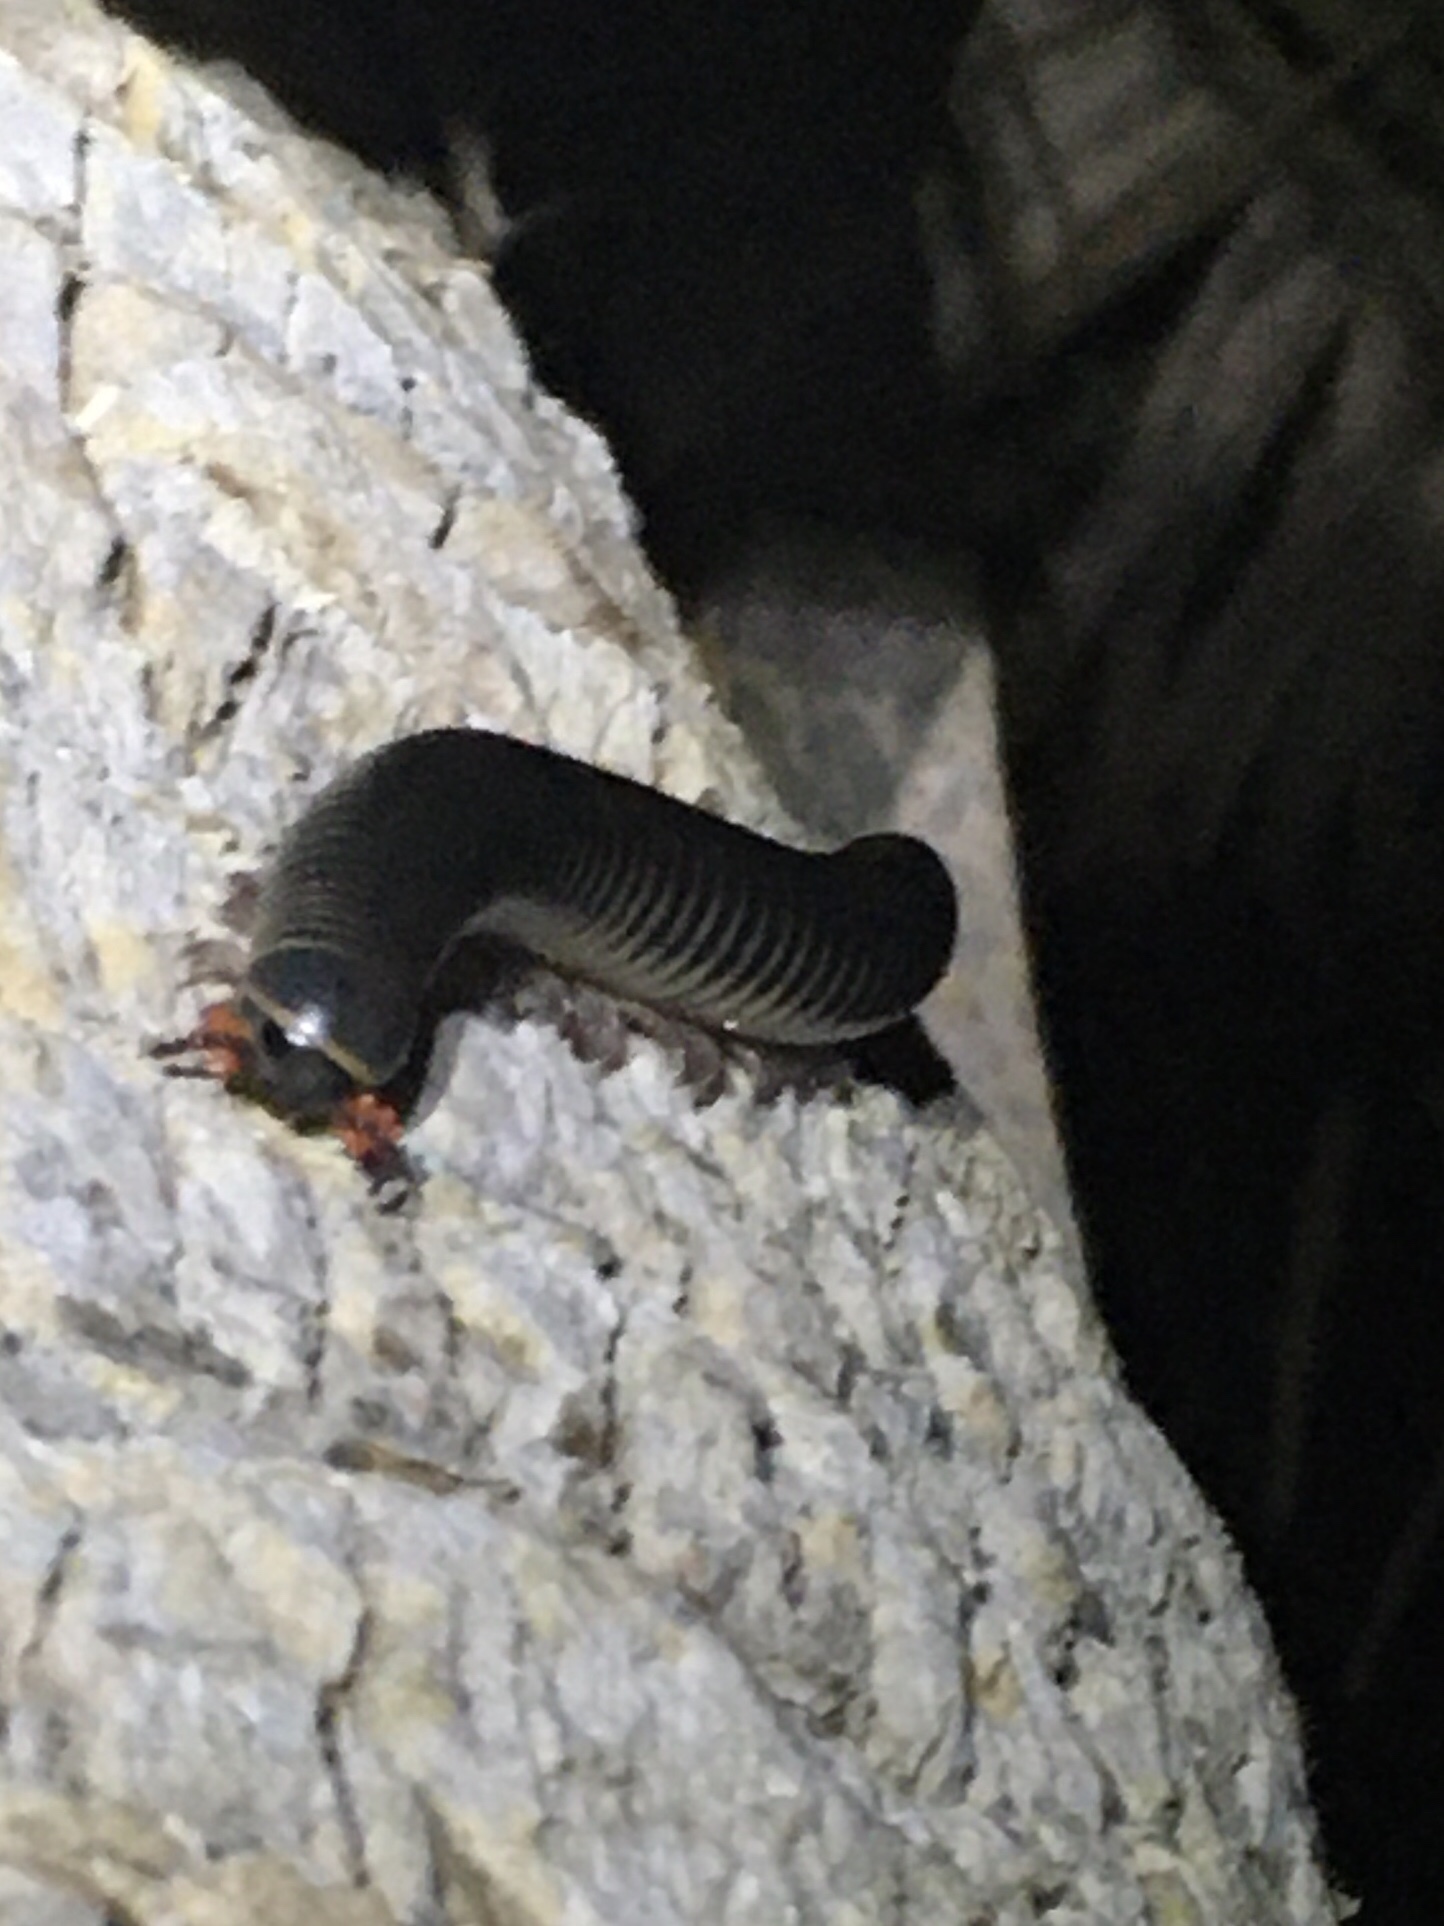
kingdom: Animalia
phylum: Arthropoda
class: Diplopoda
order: Spirobolida
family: Spirobolidae
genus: Chicobolus
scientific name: Chicobolus spinigerus
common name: Florida ivory millipede
